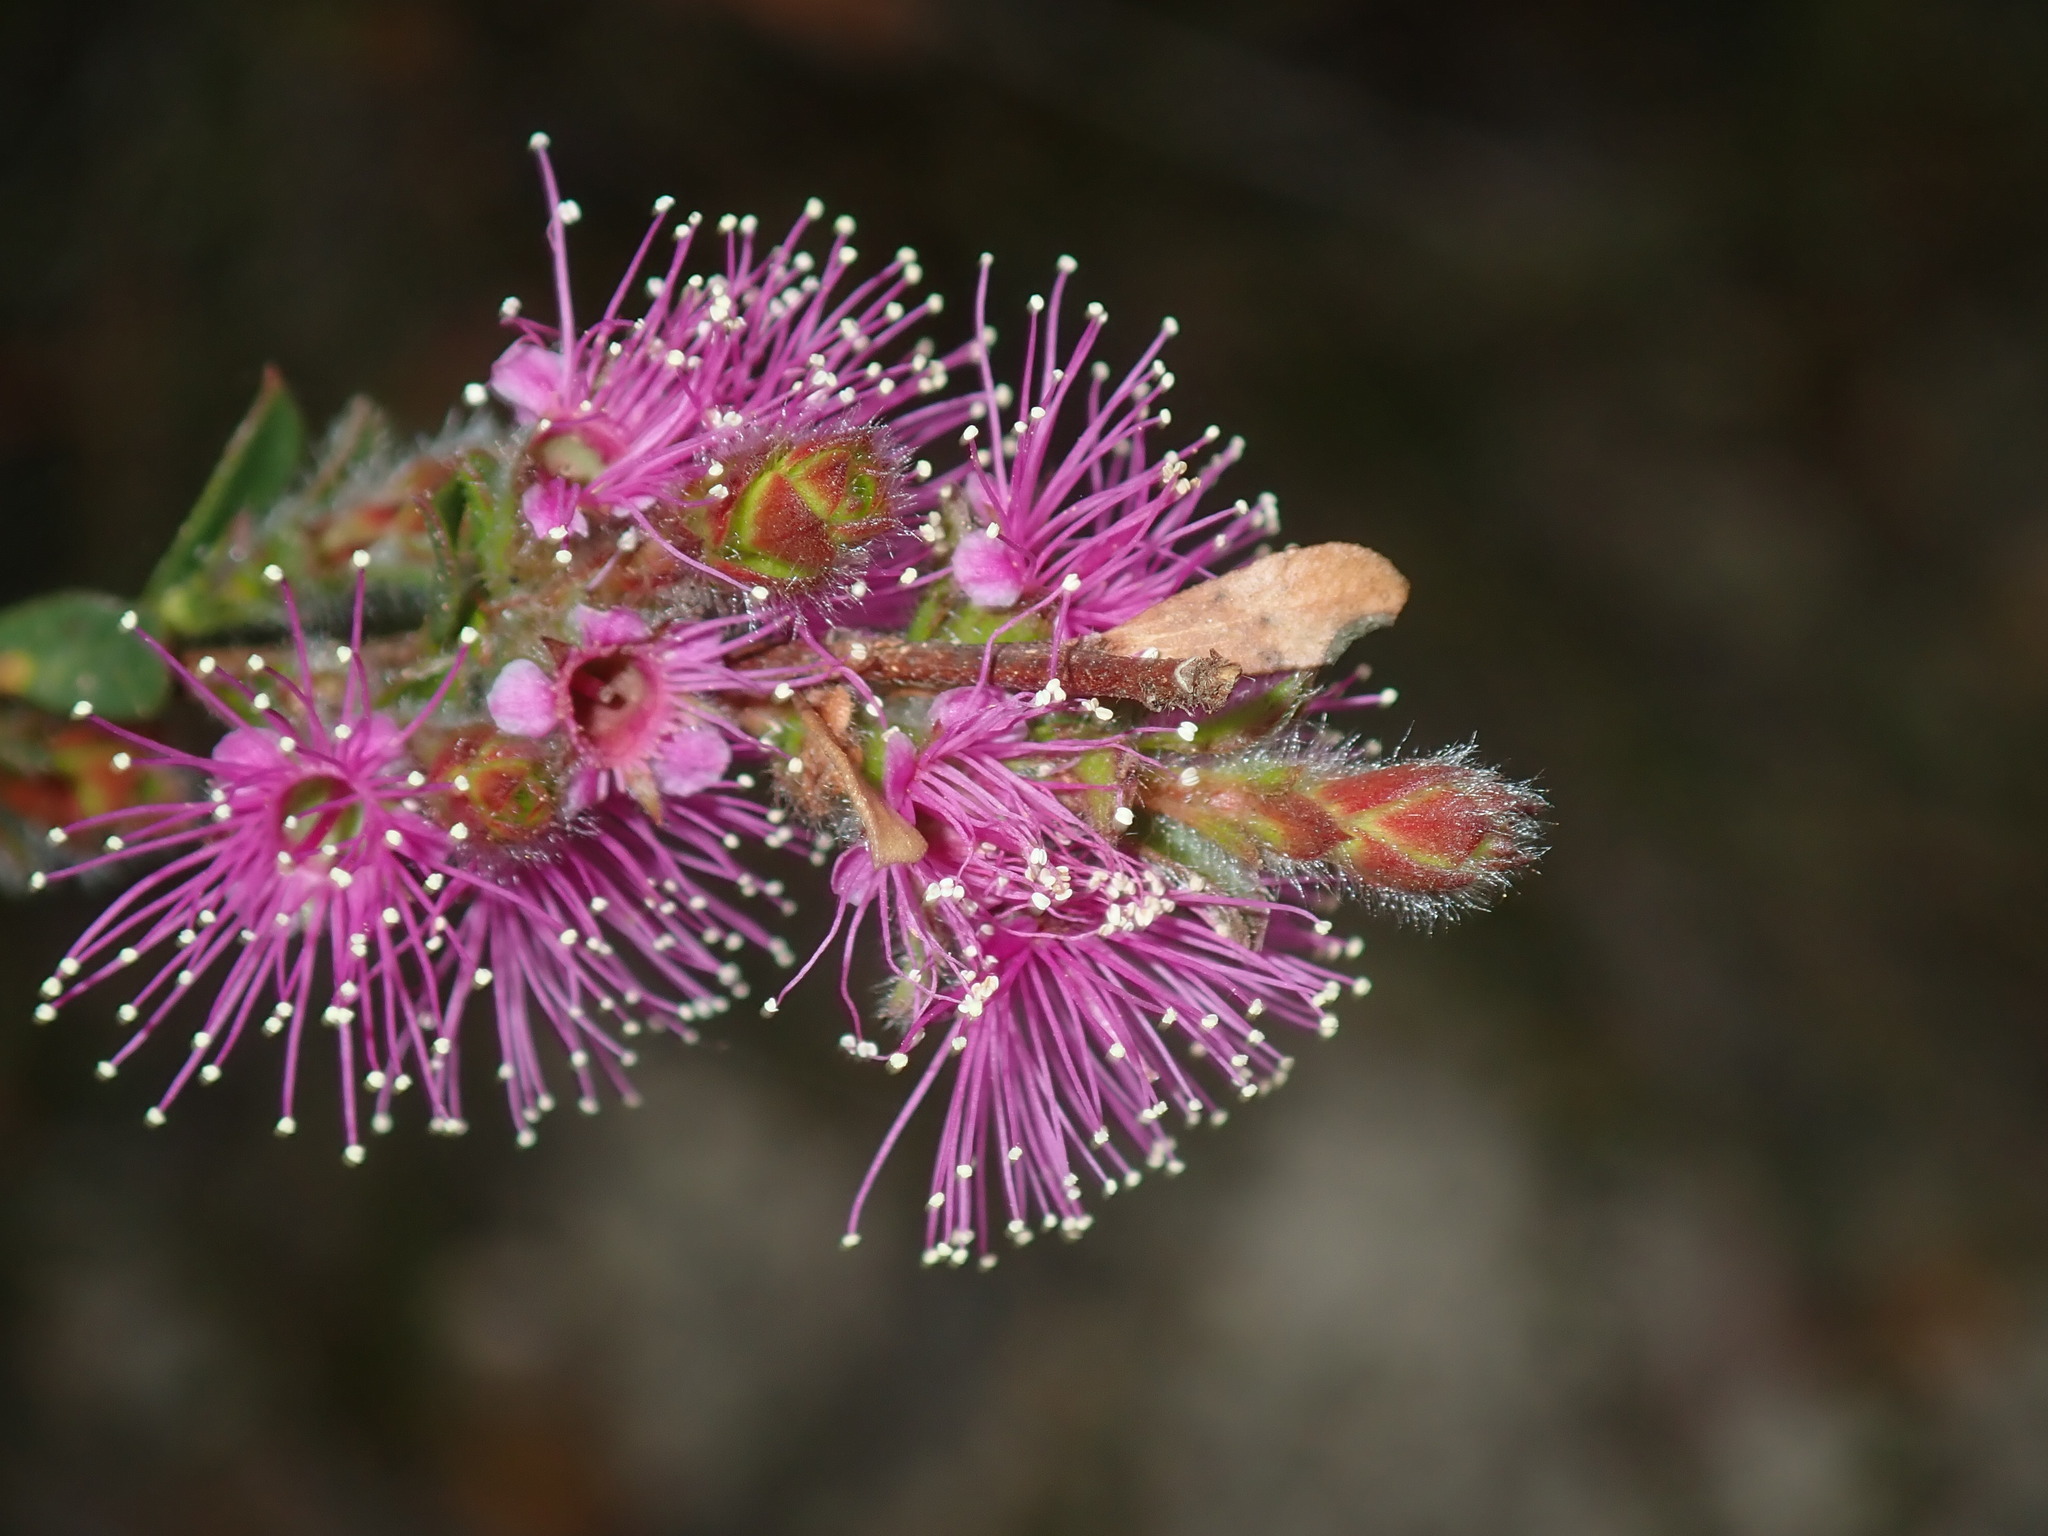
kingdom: Plantae
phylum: Tracheophyta
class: Magnoliopsida
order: Myrtales
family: Myrtaceae
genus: Kunzea
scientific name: Kunzea capitata
